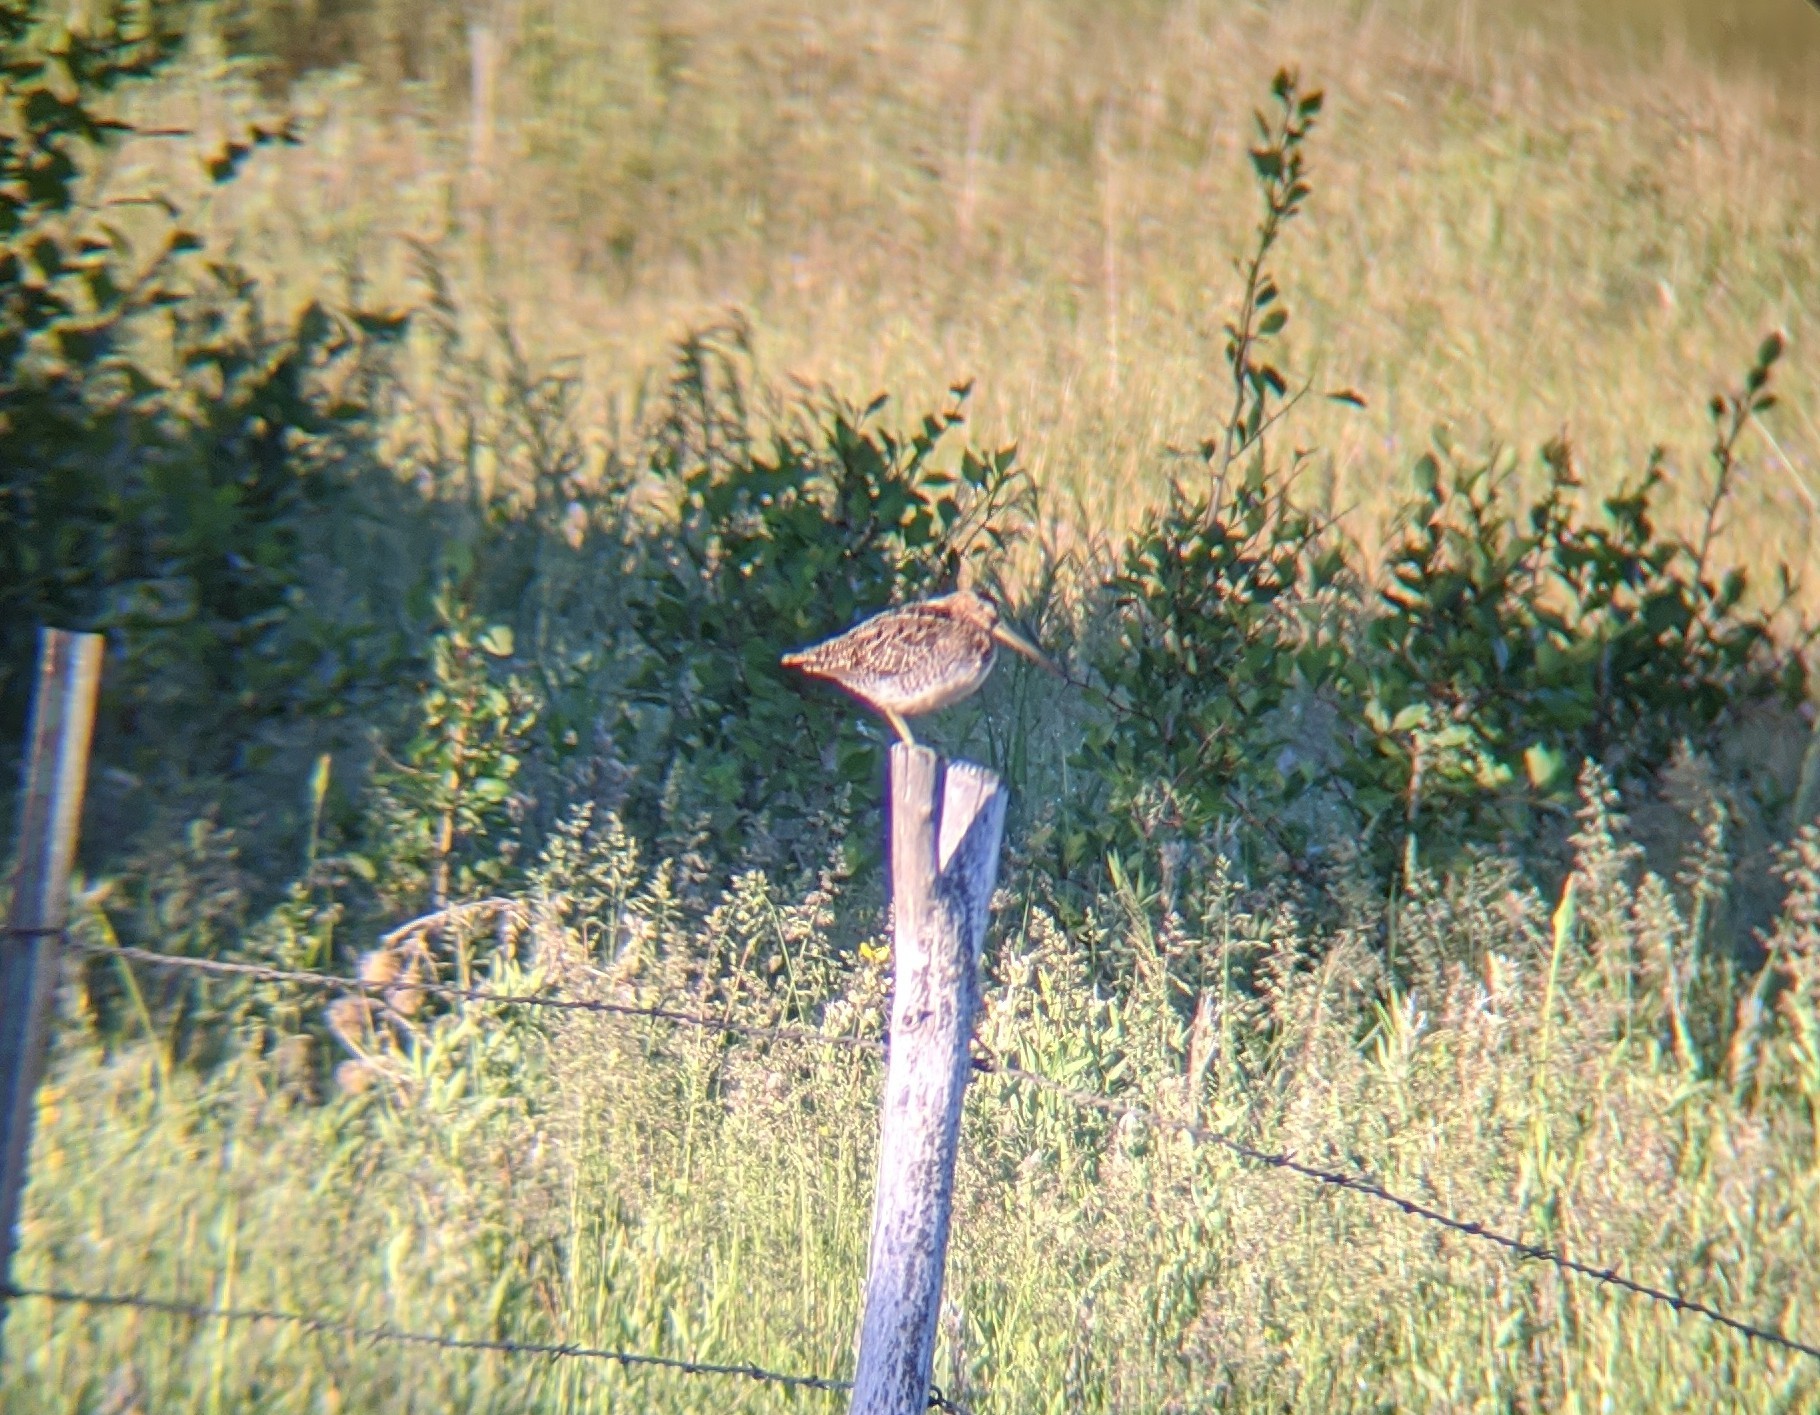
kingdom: Animalia
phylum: Chordata
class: Aves
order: Charadriiformes
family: Scolopacidae
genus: Gallinago
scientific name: Gallinago delicata
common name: Wilson's snipe
